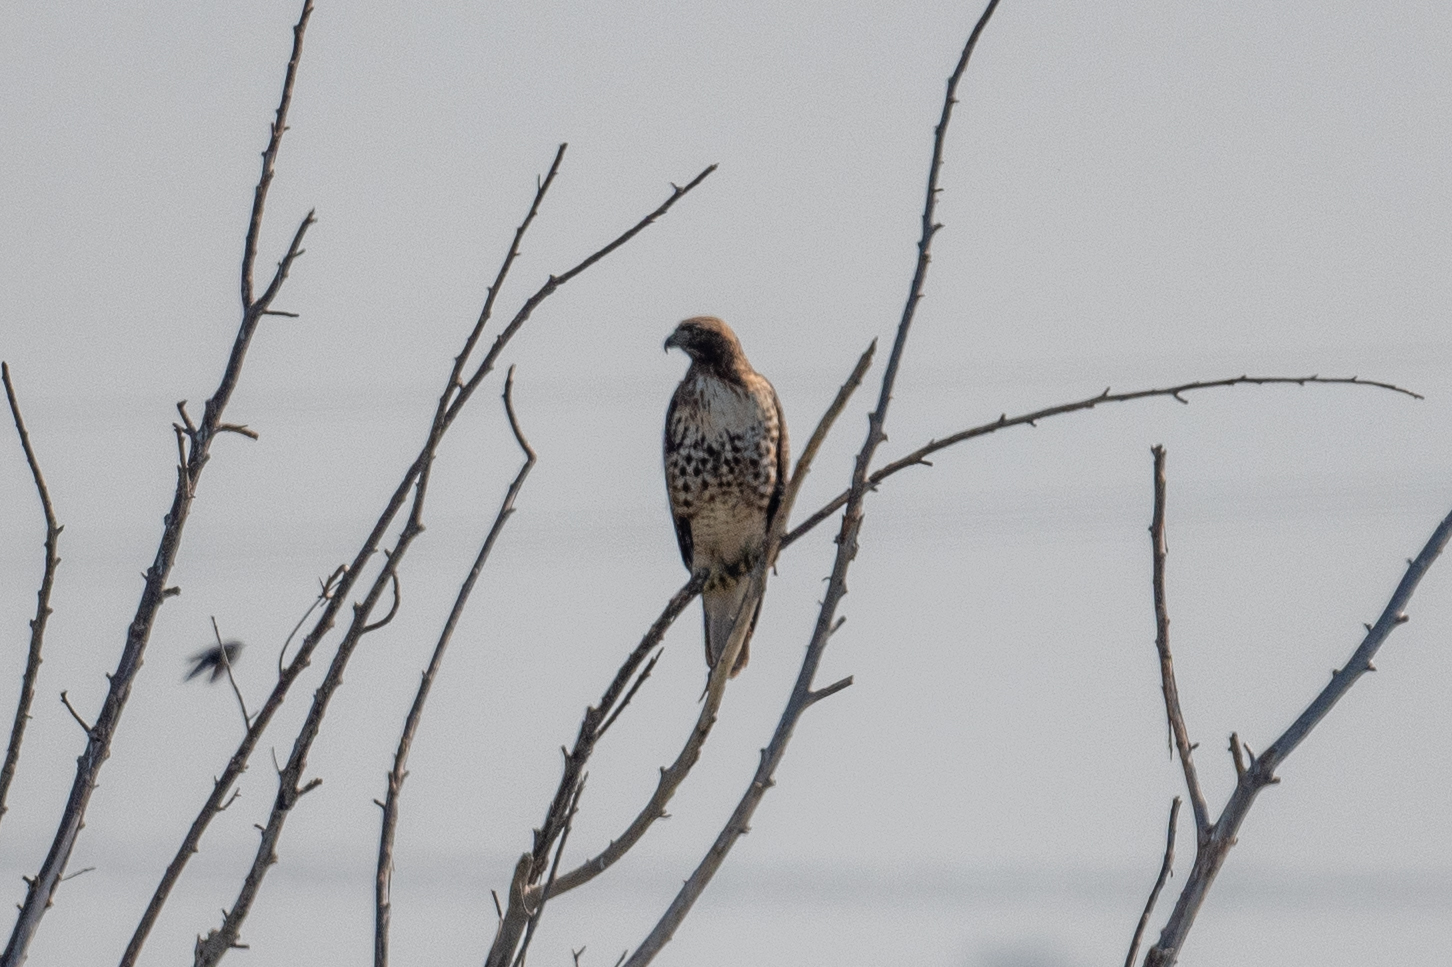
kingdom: Animalia
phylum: Chordata
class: Aves
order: Accipitriformes
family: Accipitridae
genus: Buteo
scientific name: Buteo jamaicensis
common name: Red-tailed hawk
